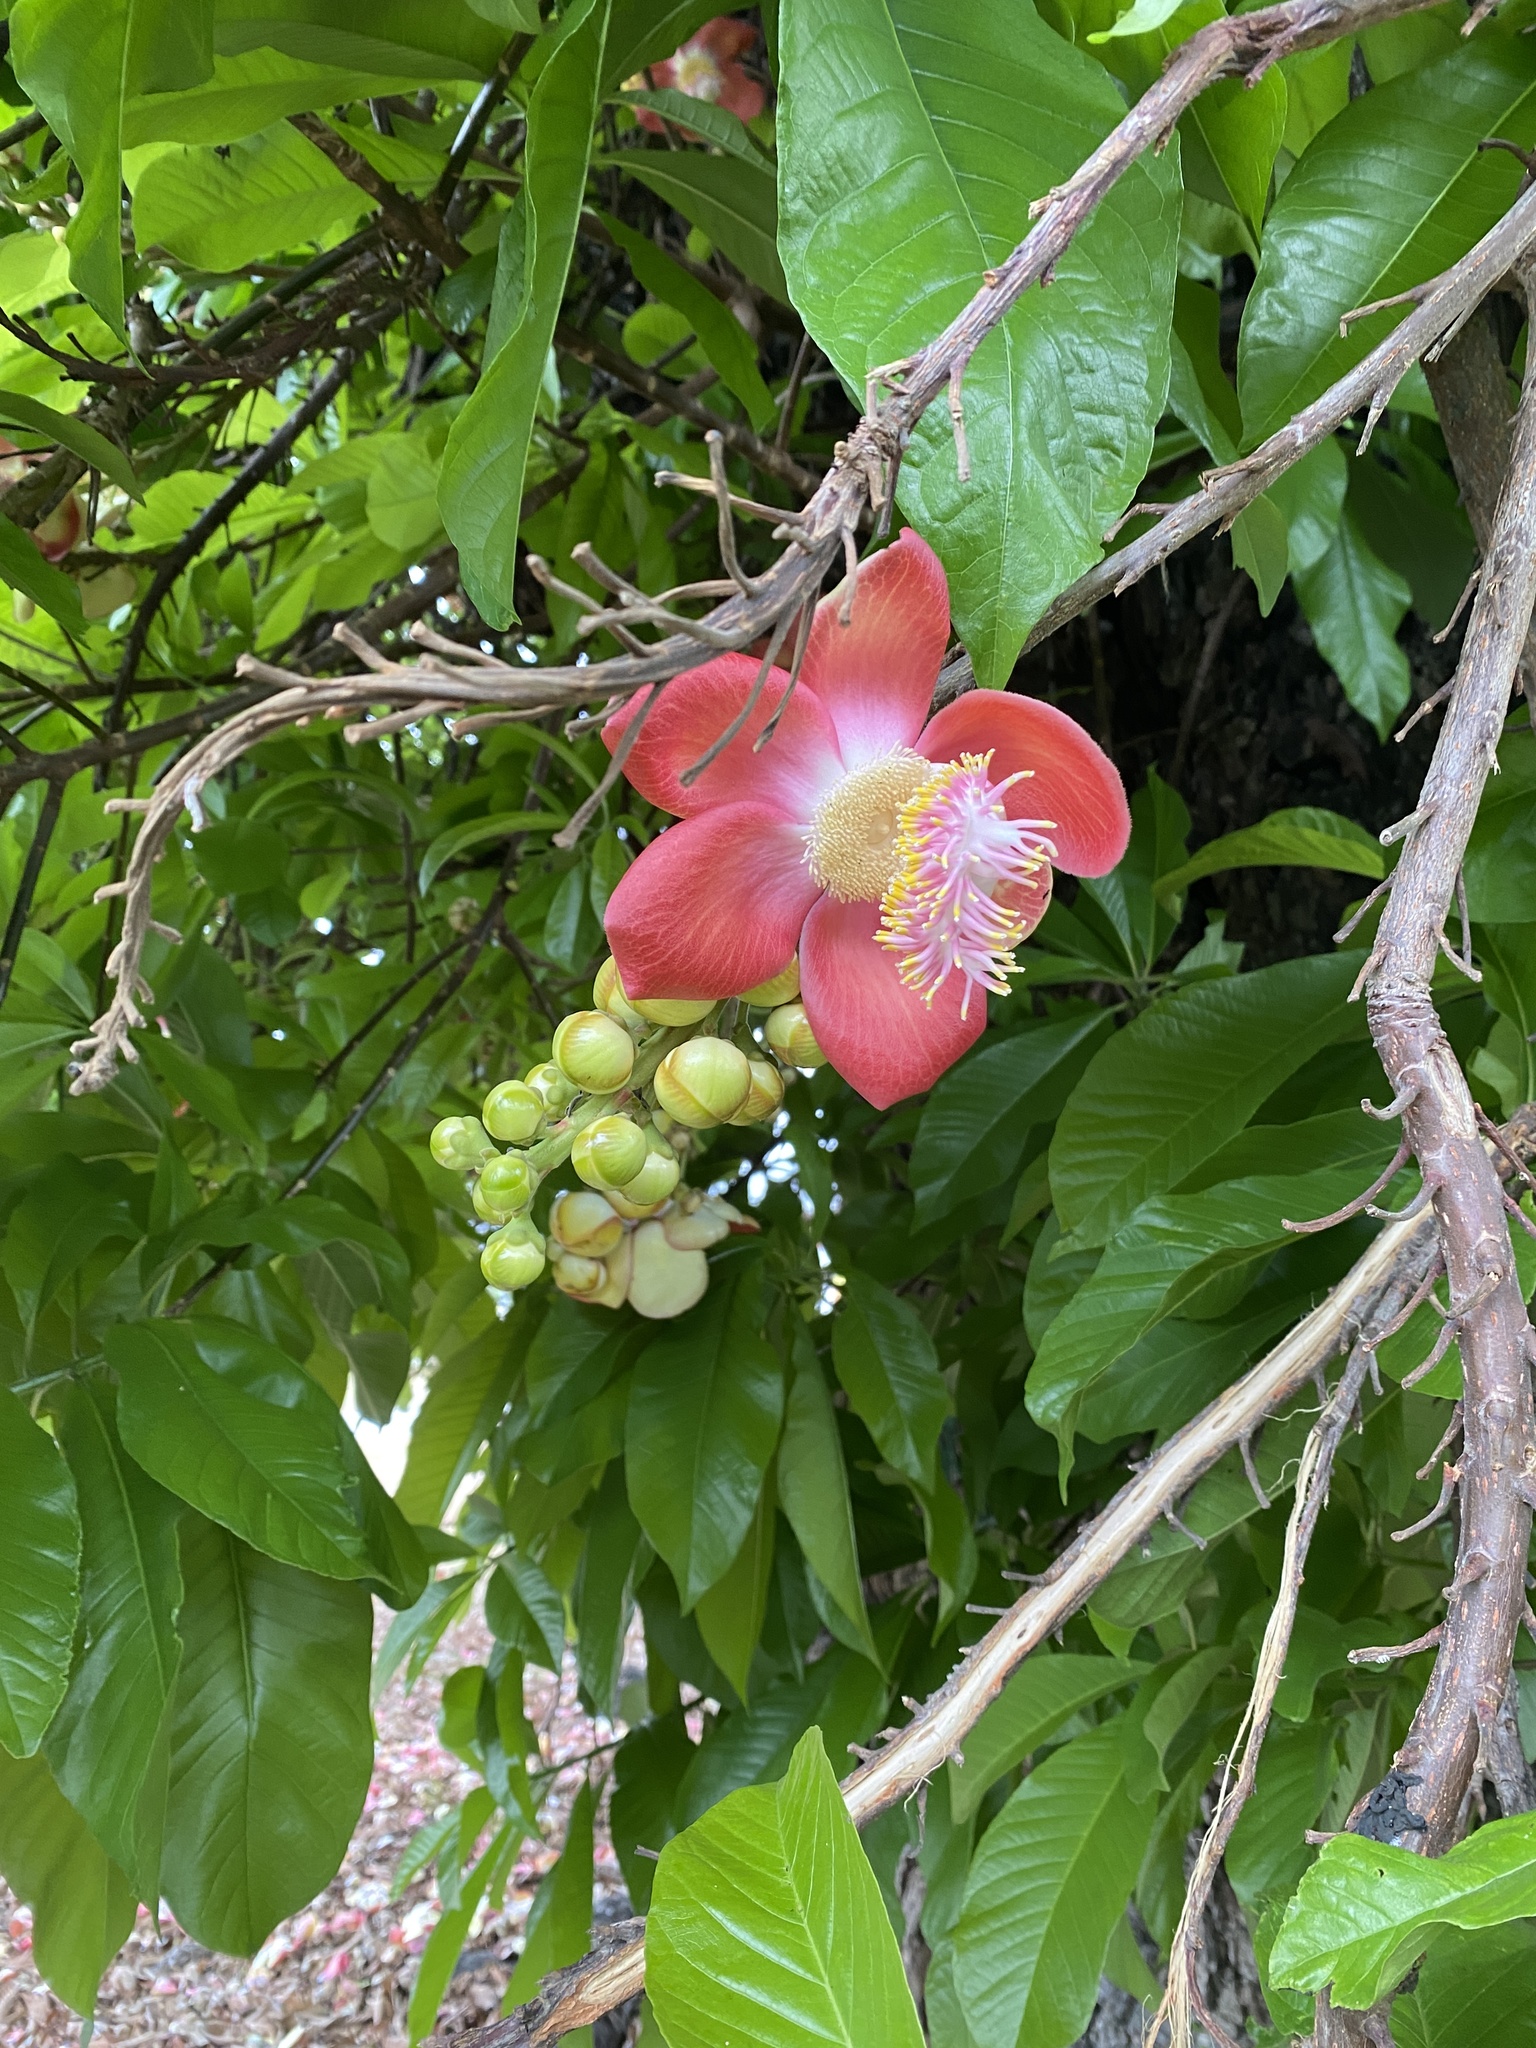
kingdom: Plantae
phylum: Tracheophyta
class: Magnoliopsida
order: Ericales
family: Lecythidaceae
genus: Couroupita
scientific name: Couroupita guianensis
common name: Cannonball tree
